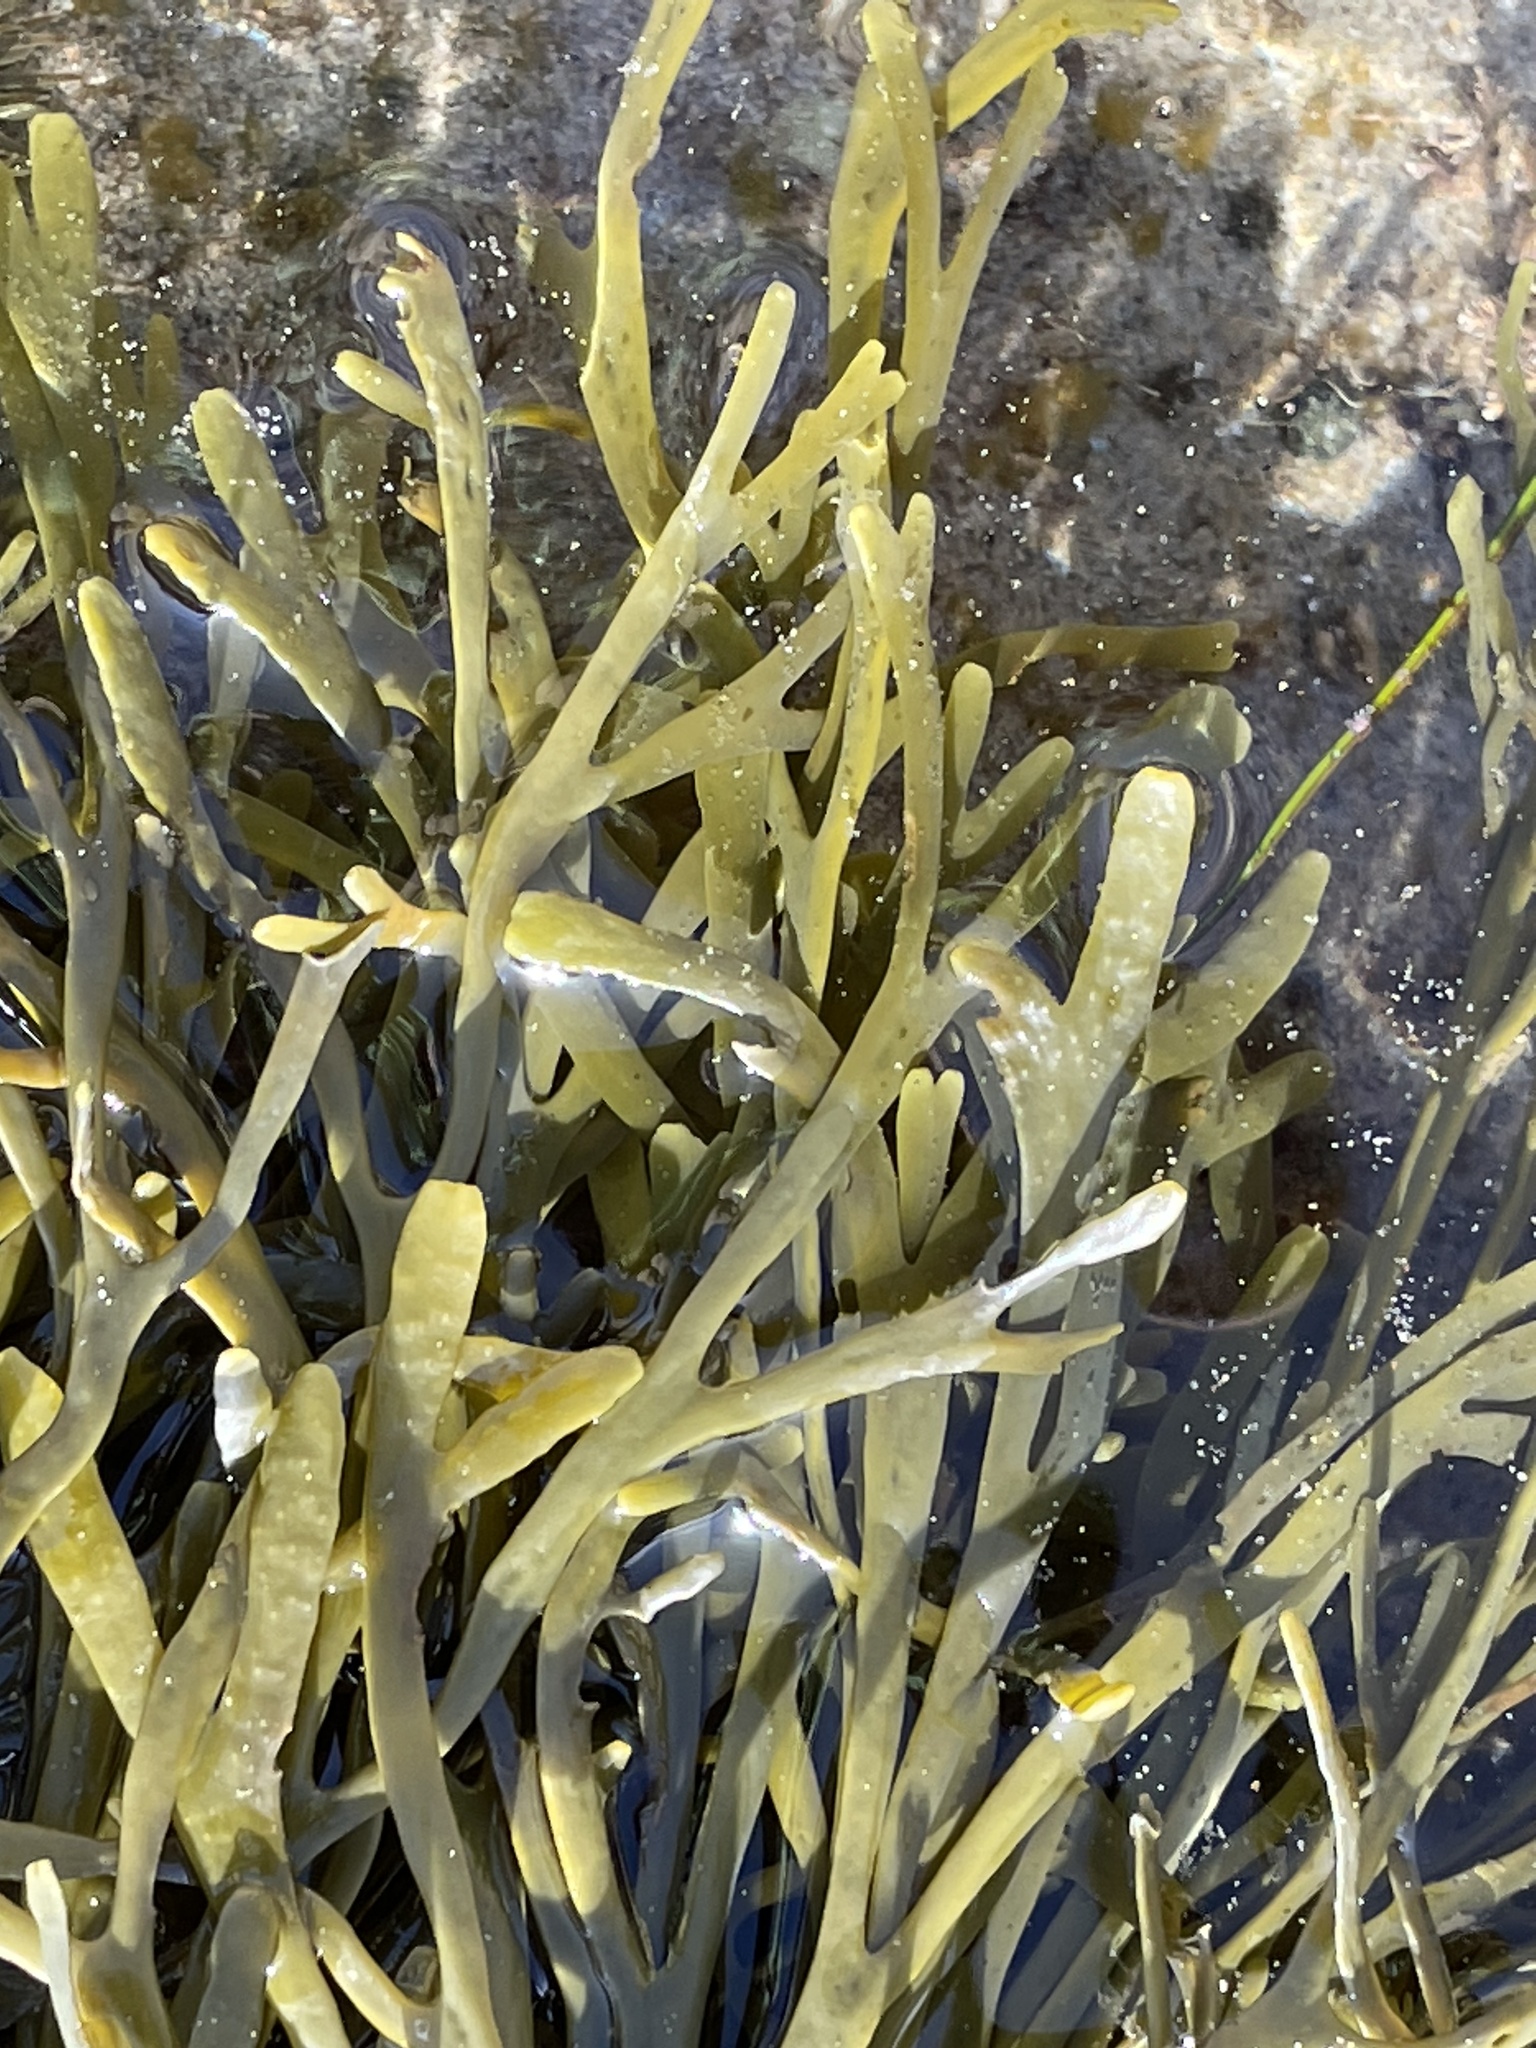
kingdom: Chromista
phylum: Ochrophyta
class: Phaeophyceae
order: Fucales
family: Fucaceae
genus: Silvetia
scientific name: Silvetia
